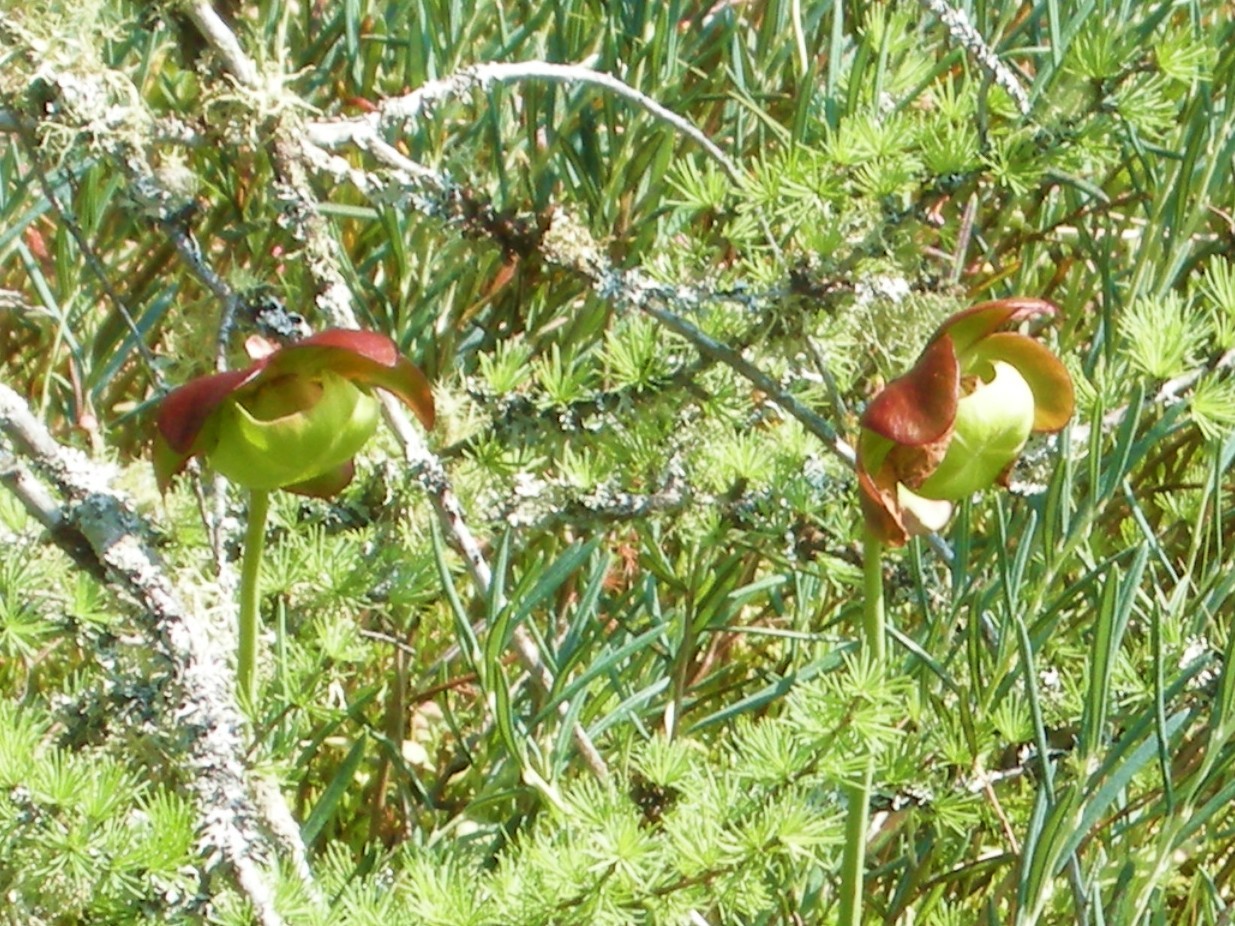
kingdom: Plantae
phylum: Tracheophyta
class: Magnoliopsida
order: Ericales
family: Sarraceniaceae
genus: Sarracenia
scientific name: Sarracenia purpurea
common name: Pitcherplant
